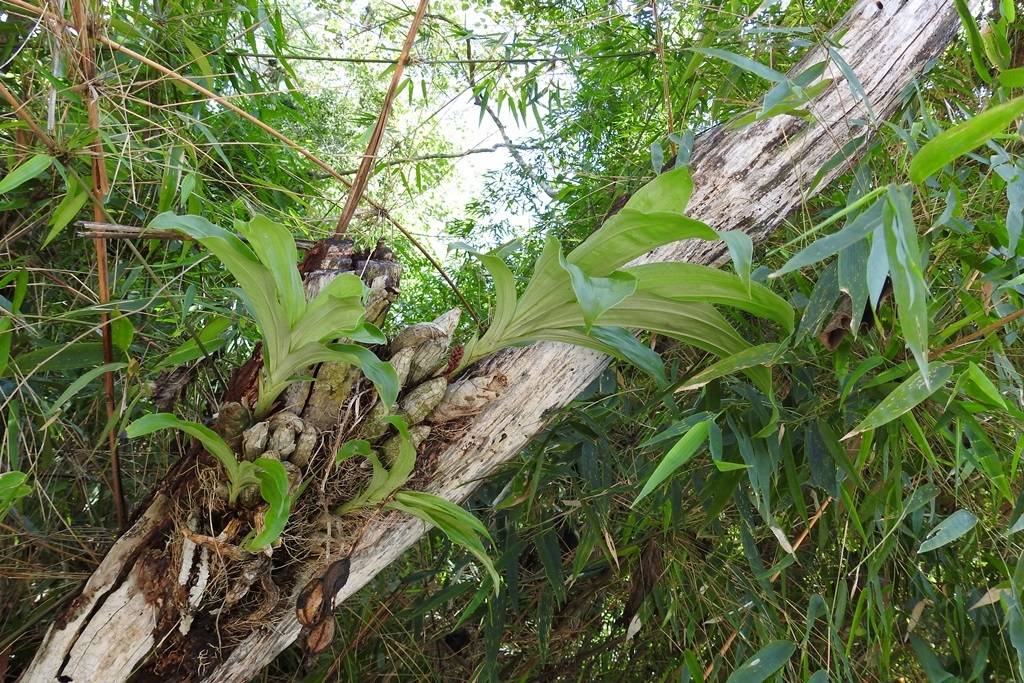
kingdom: Plantae
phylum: Tracheophyta
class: Liliopsida
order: Asparagales
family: Orchidaceae
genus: Clowesia
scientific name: Clowesia russelliana
